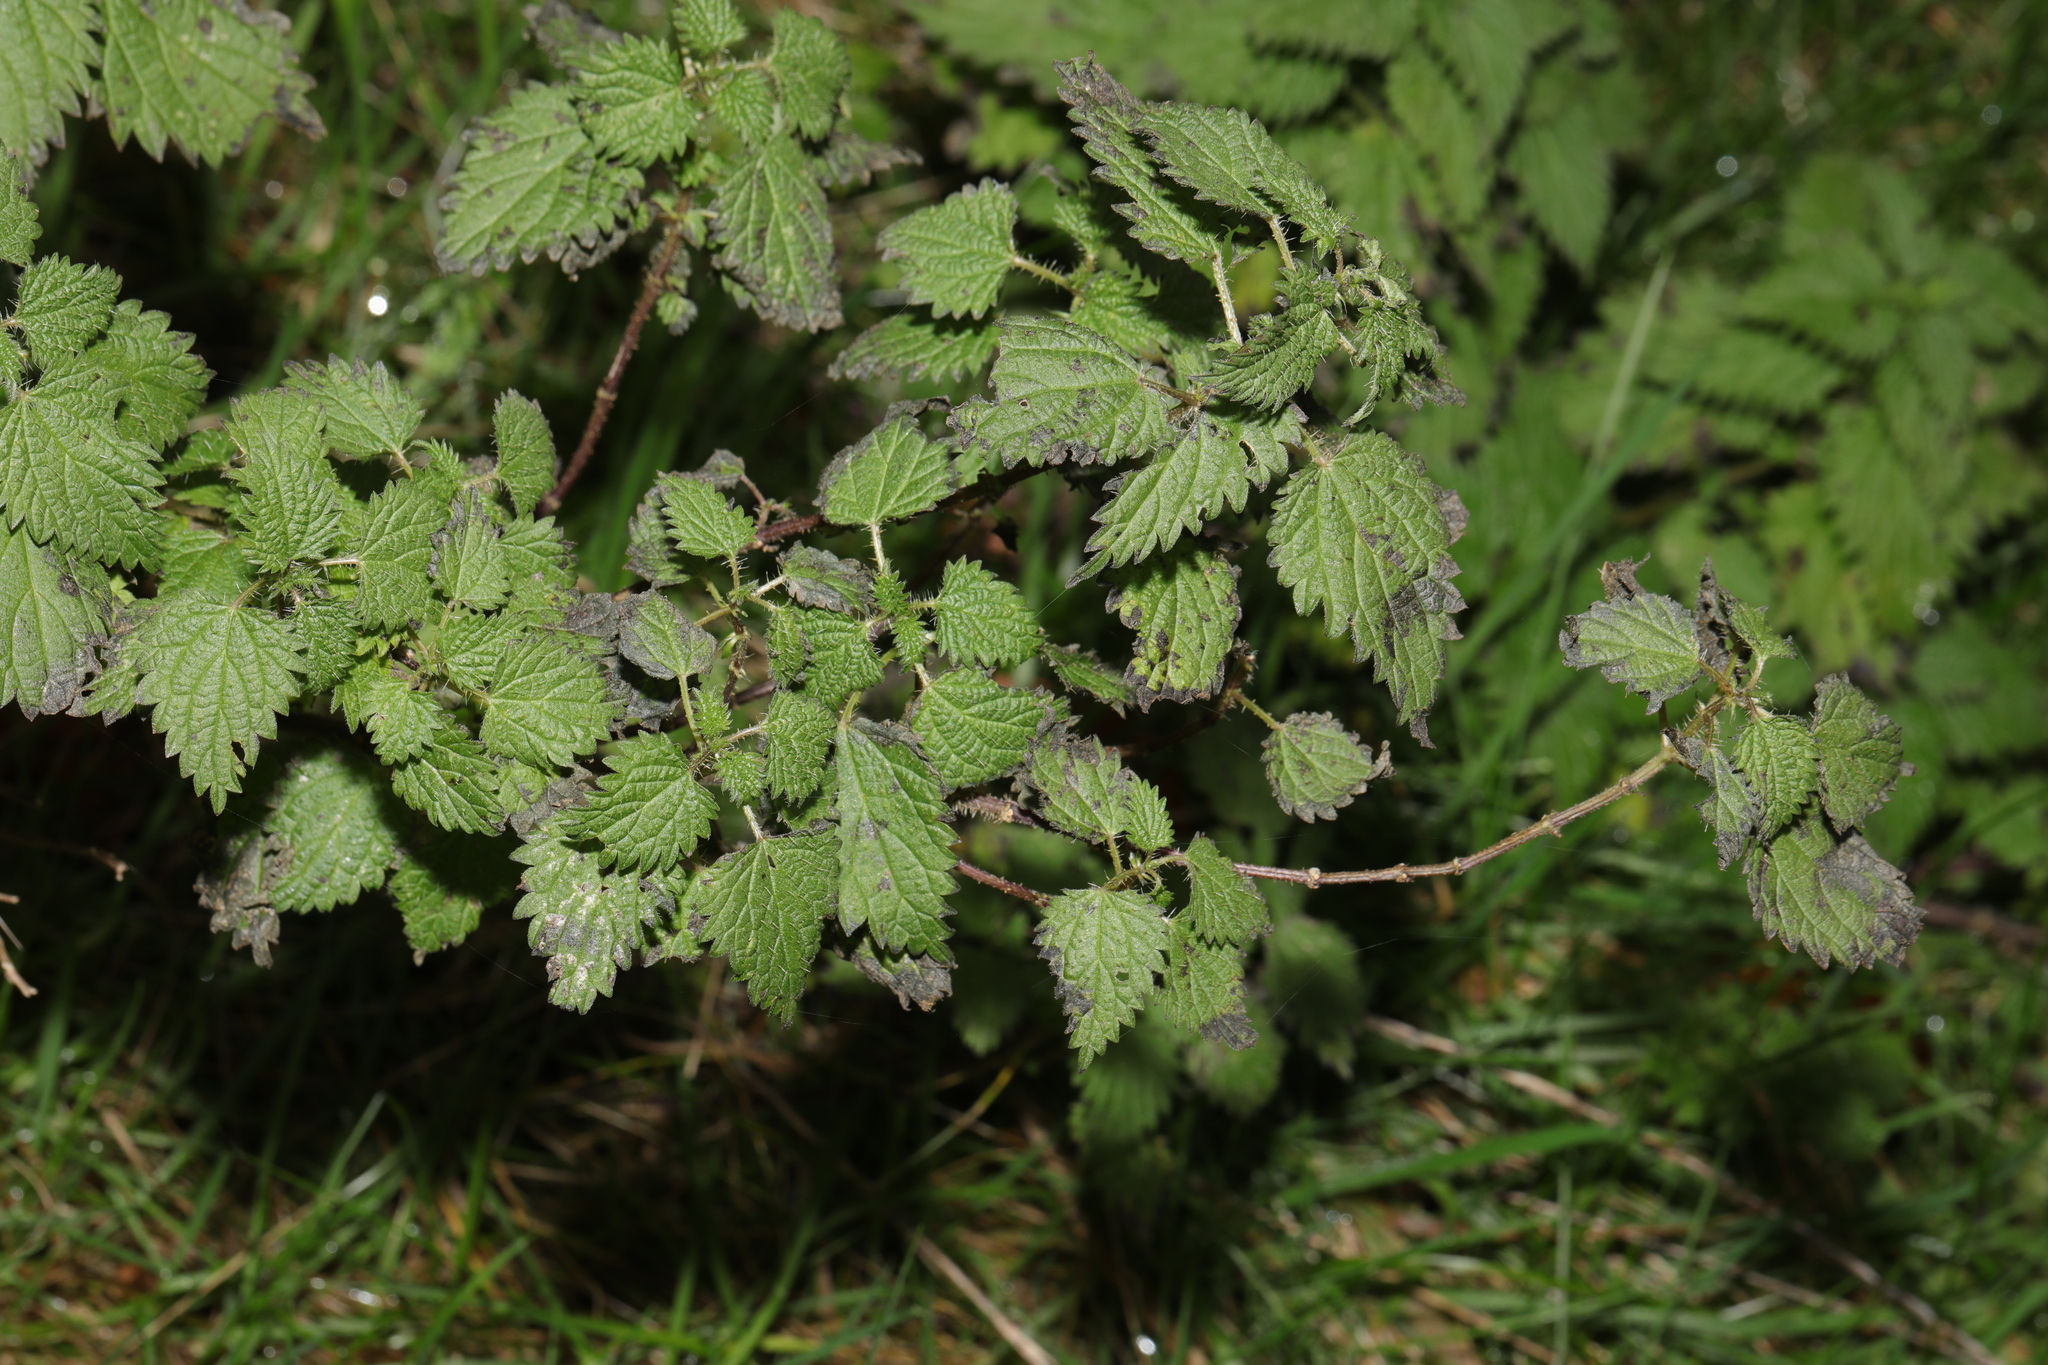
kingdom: Plantae
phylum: Tracheophyta
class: Magnoliopsida
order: Rosales
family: Urticaceae
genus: Urtica
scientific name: Urtica dioica
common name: Common nettle
